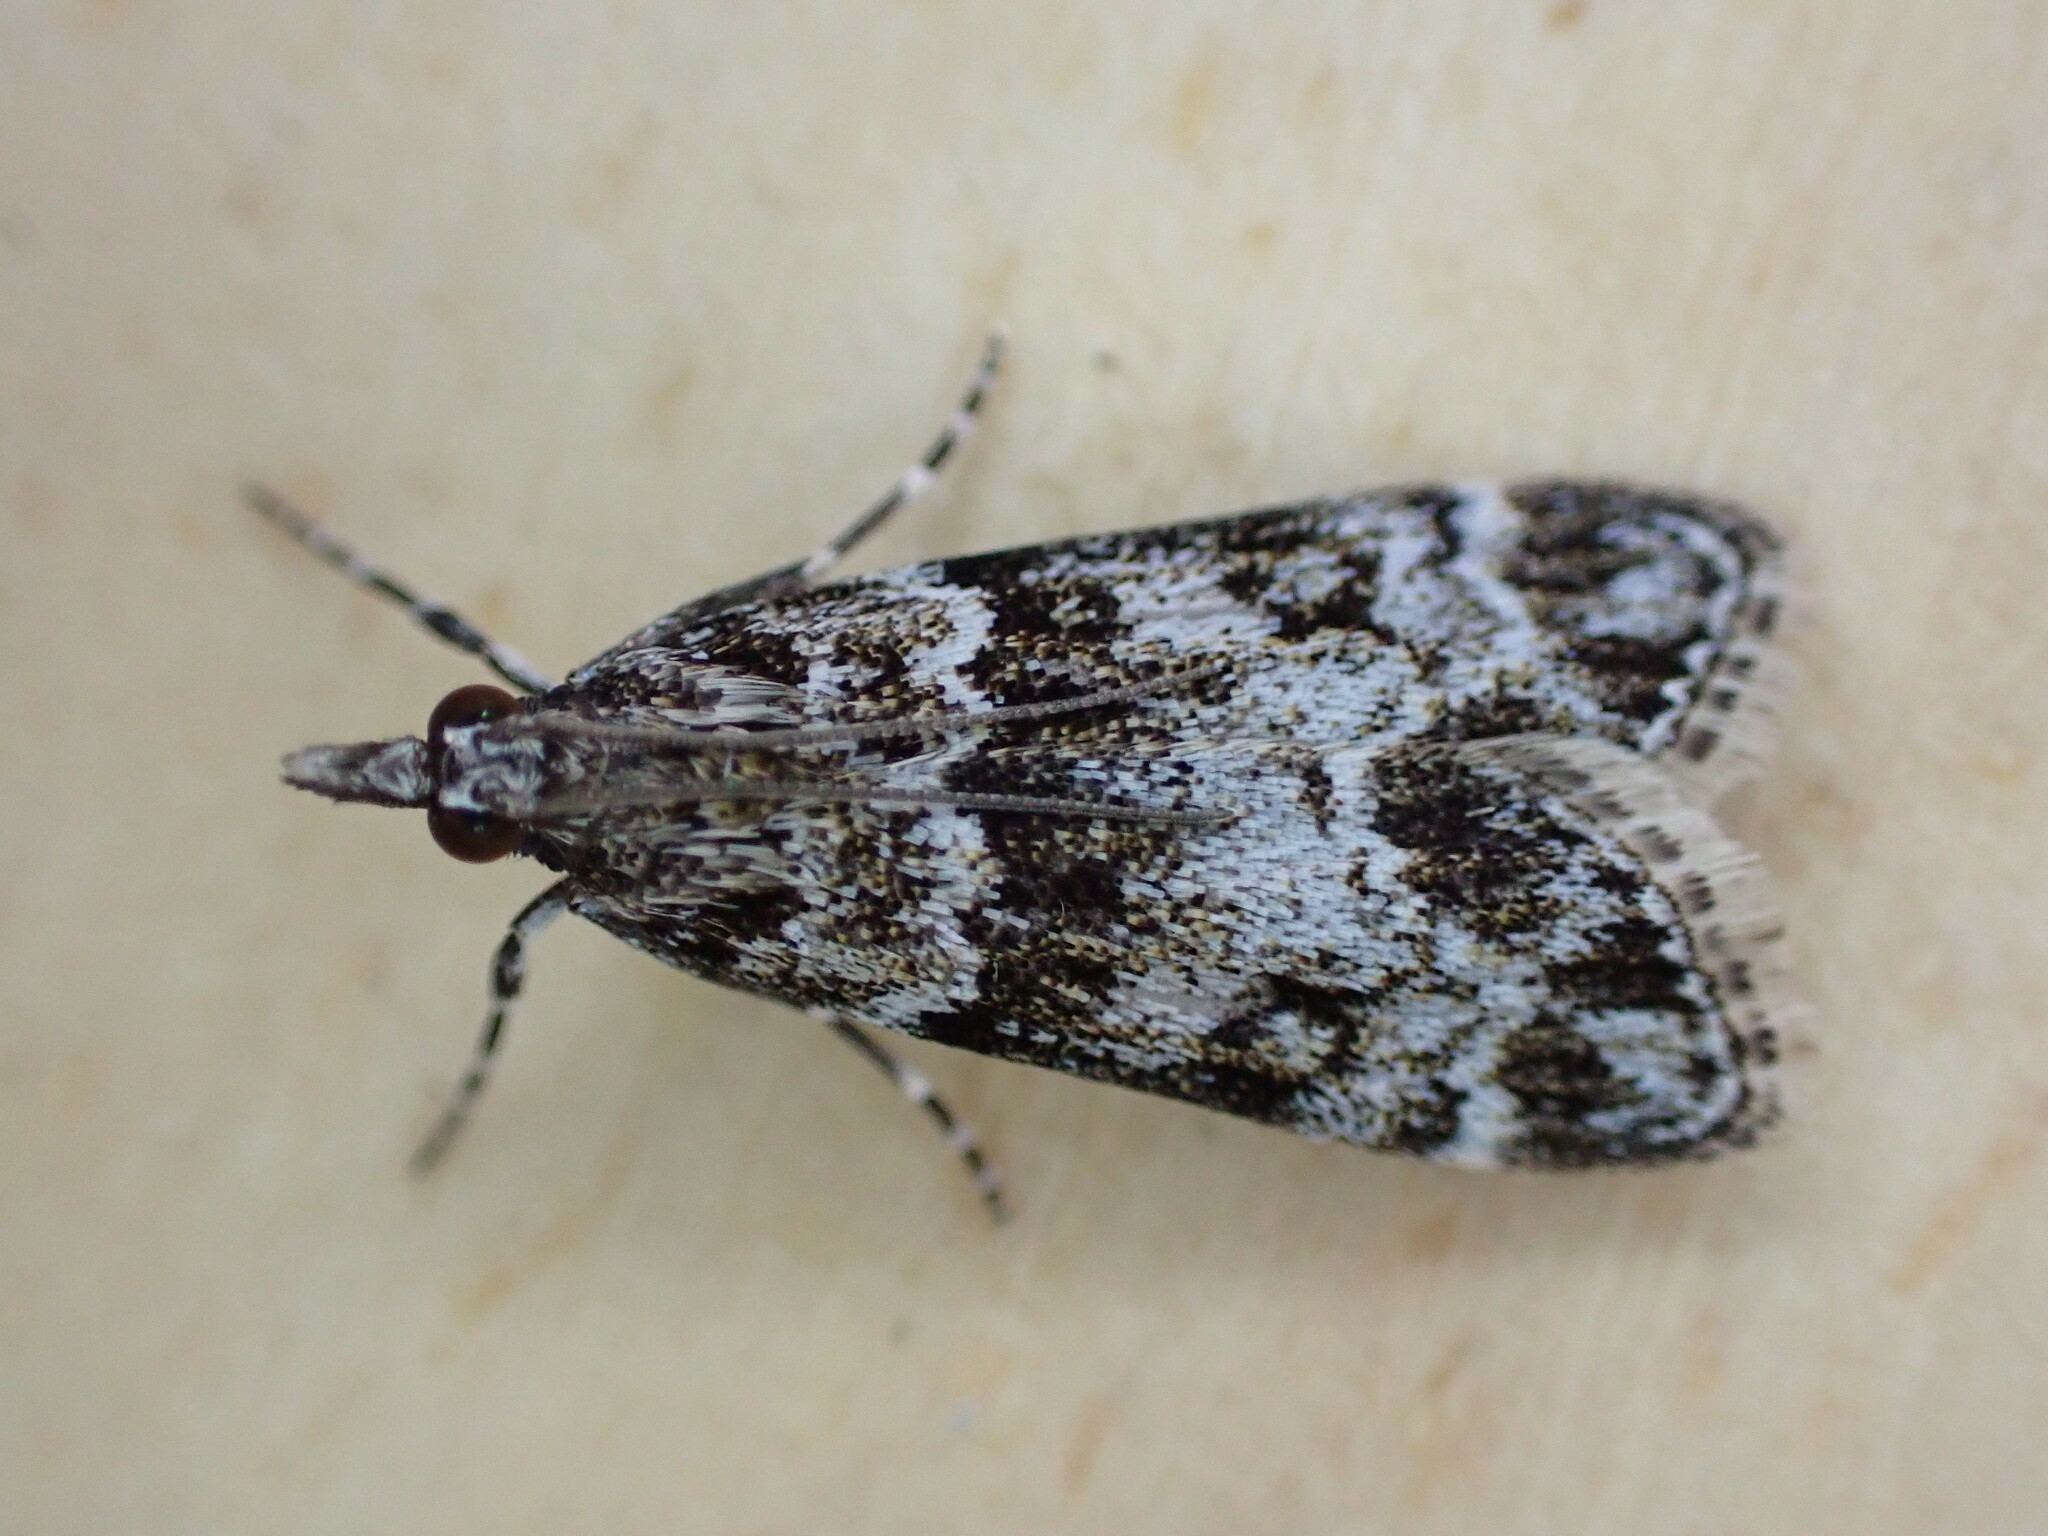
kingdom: Animalia
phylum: Arthropoda
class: Insecta
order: Lepidoptera
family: Crambidae
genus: Eudonia
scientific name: Eudonia mercurella
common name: Small grey
